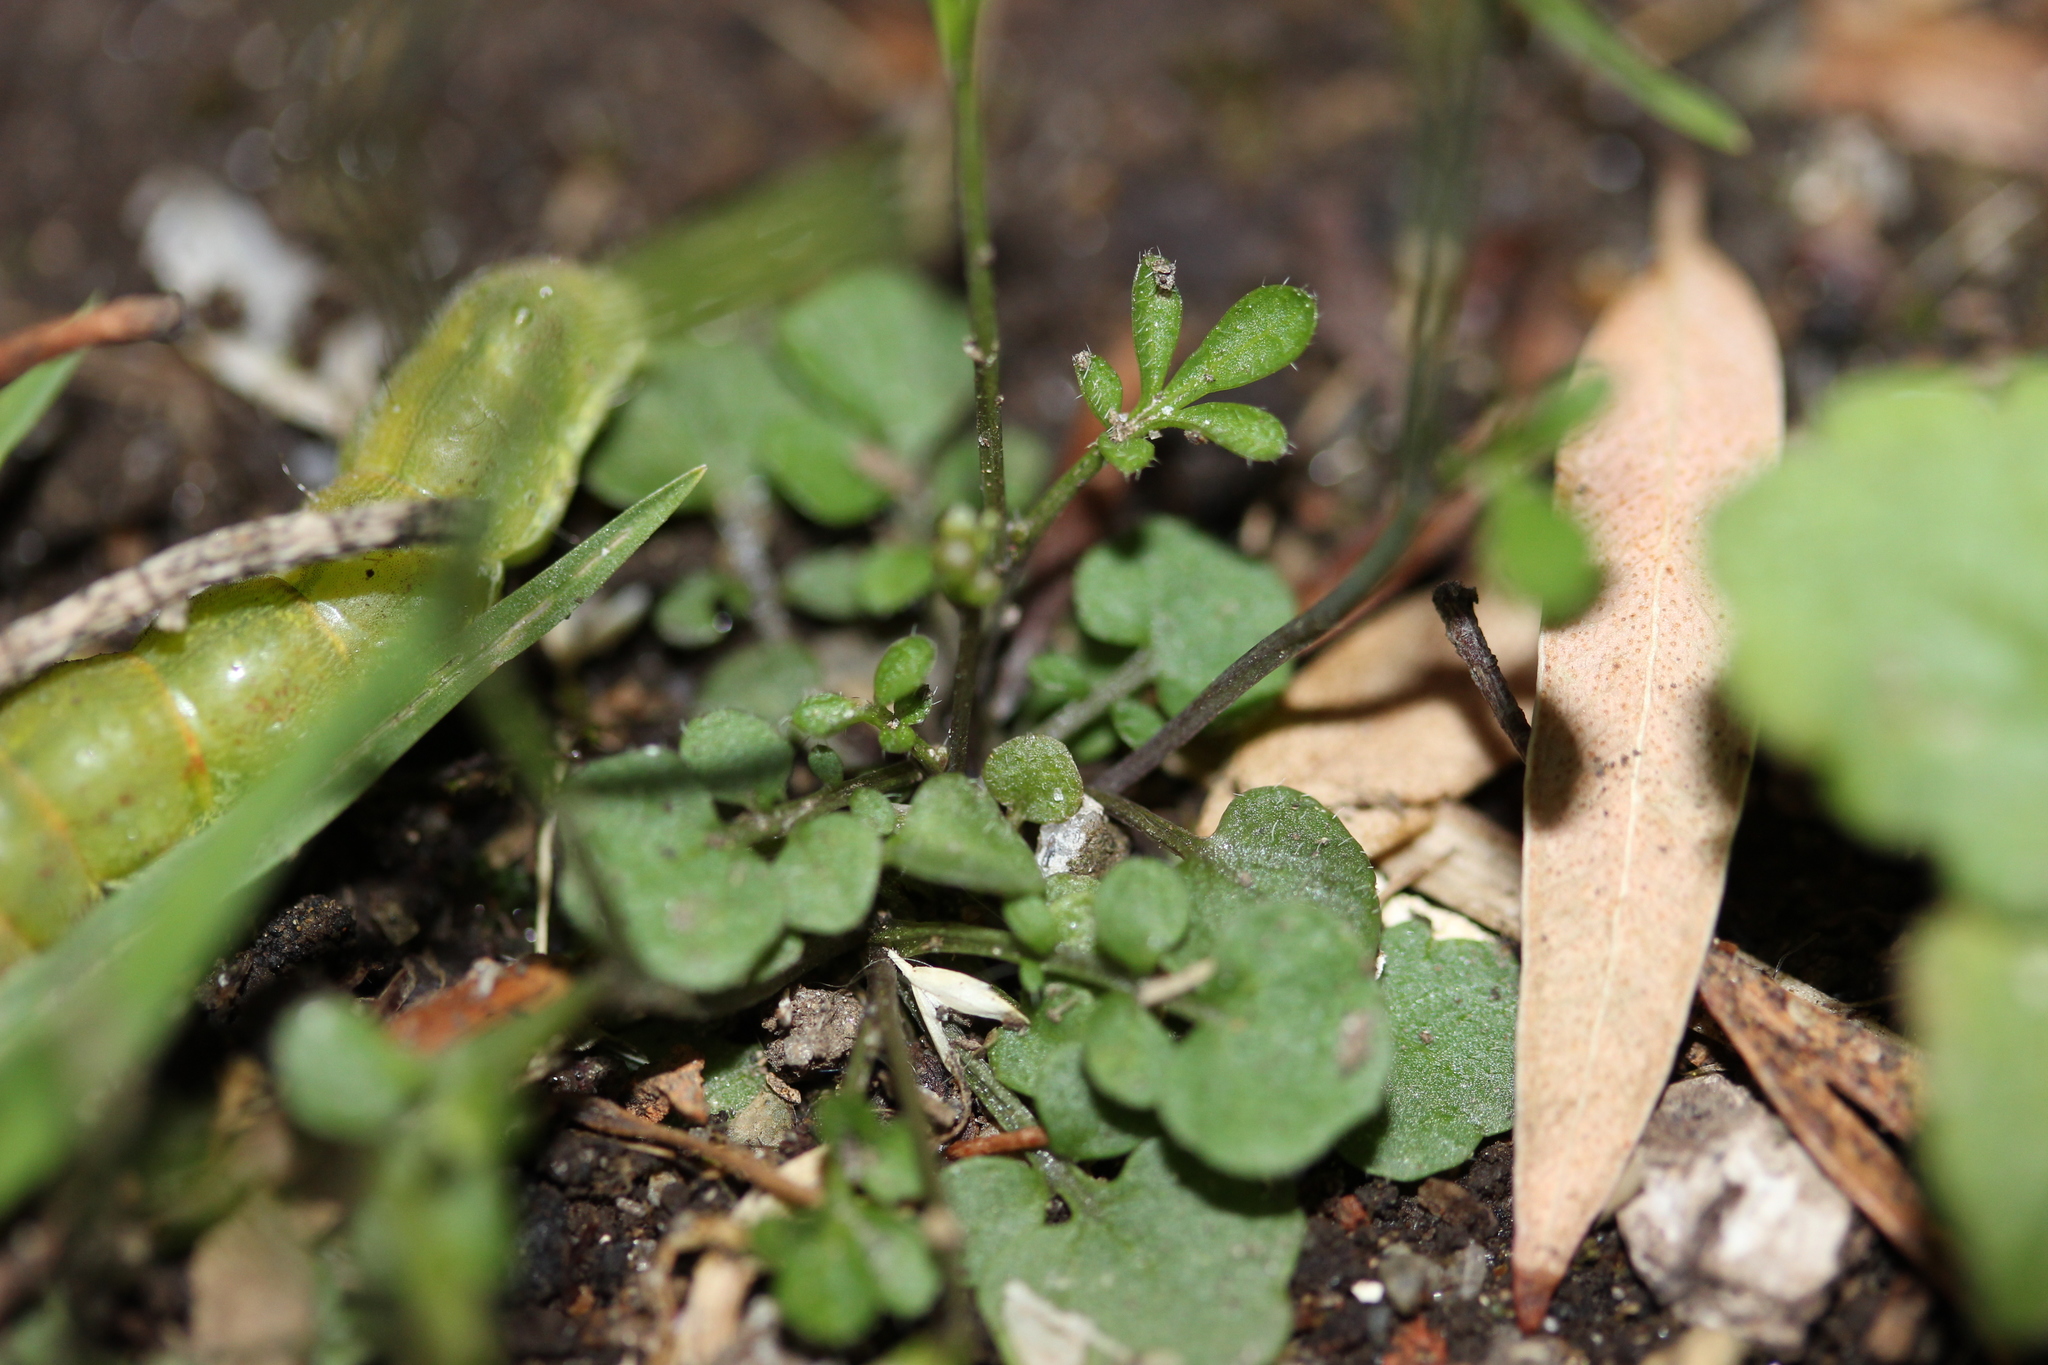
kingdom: Plantae
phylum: Tracheophyta
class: Magnoliopsida
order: Brassicales
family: Brassicaceae
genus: Cardamine
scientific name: Cardamine hirsuta
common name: Hairy bittercress
